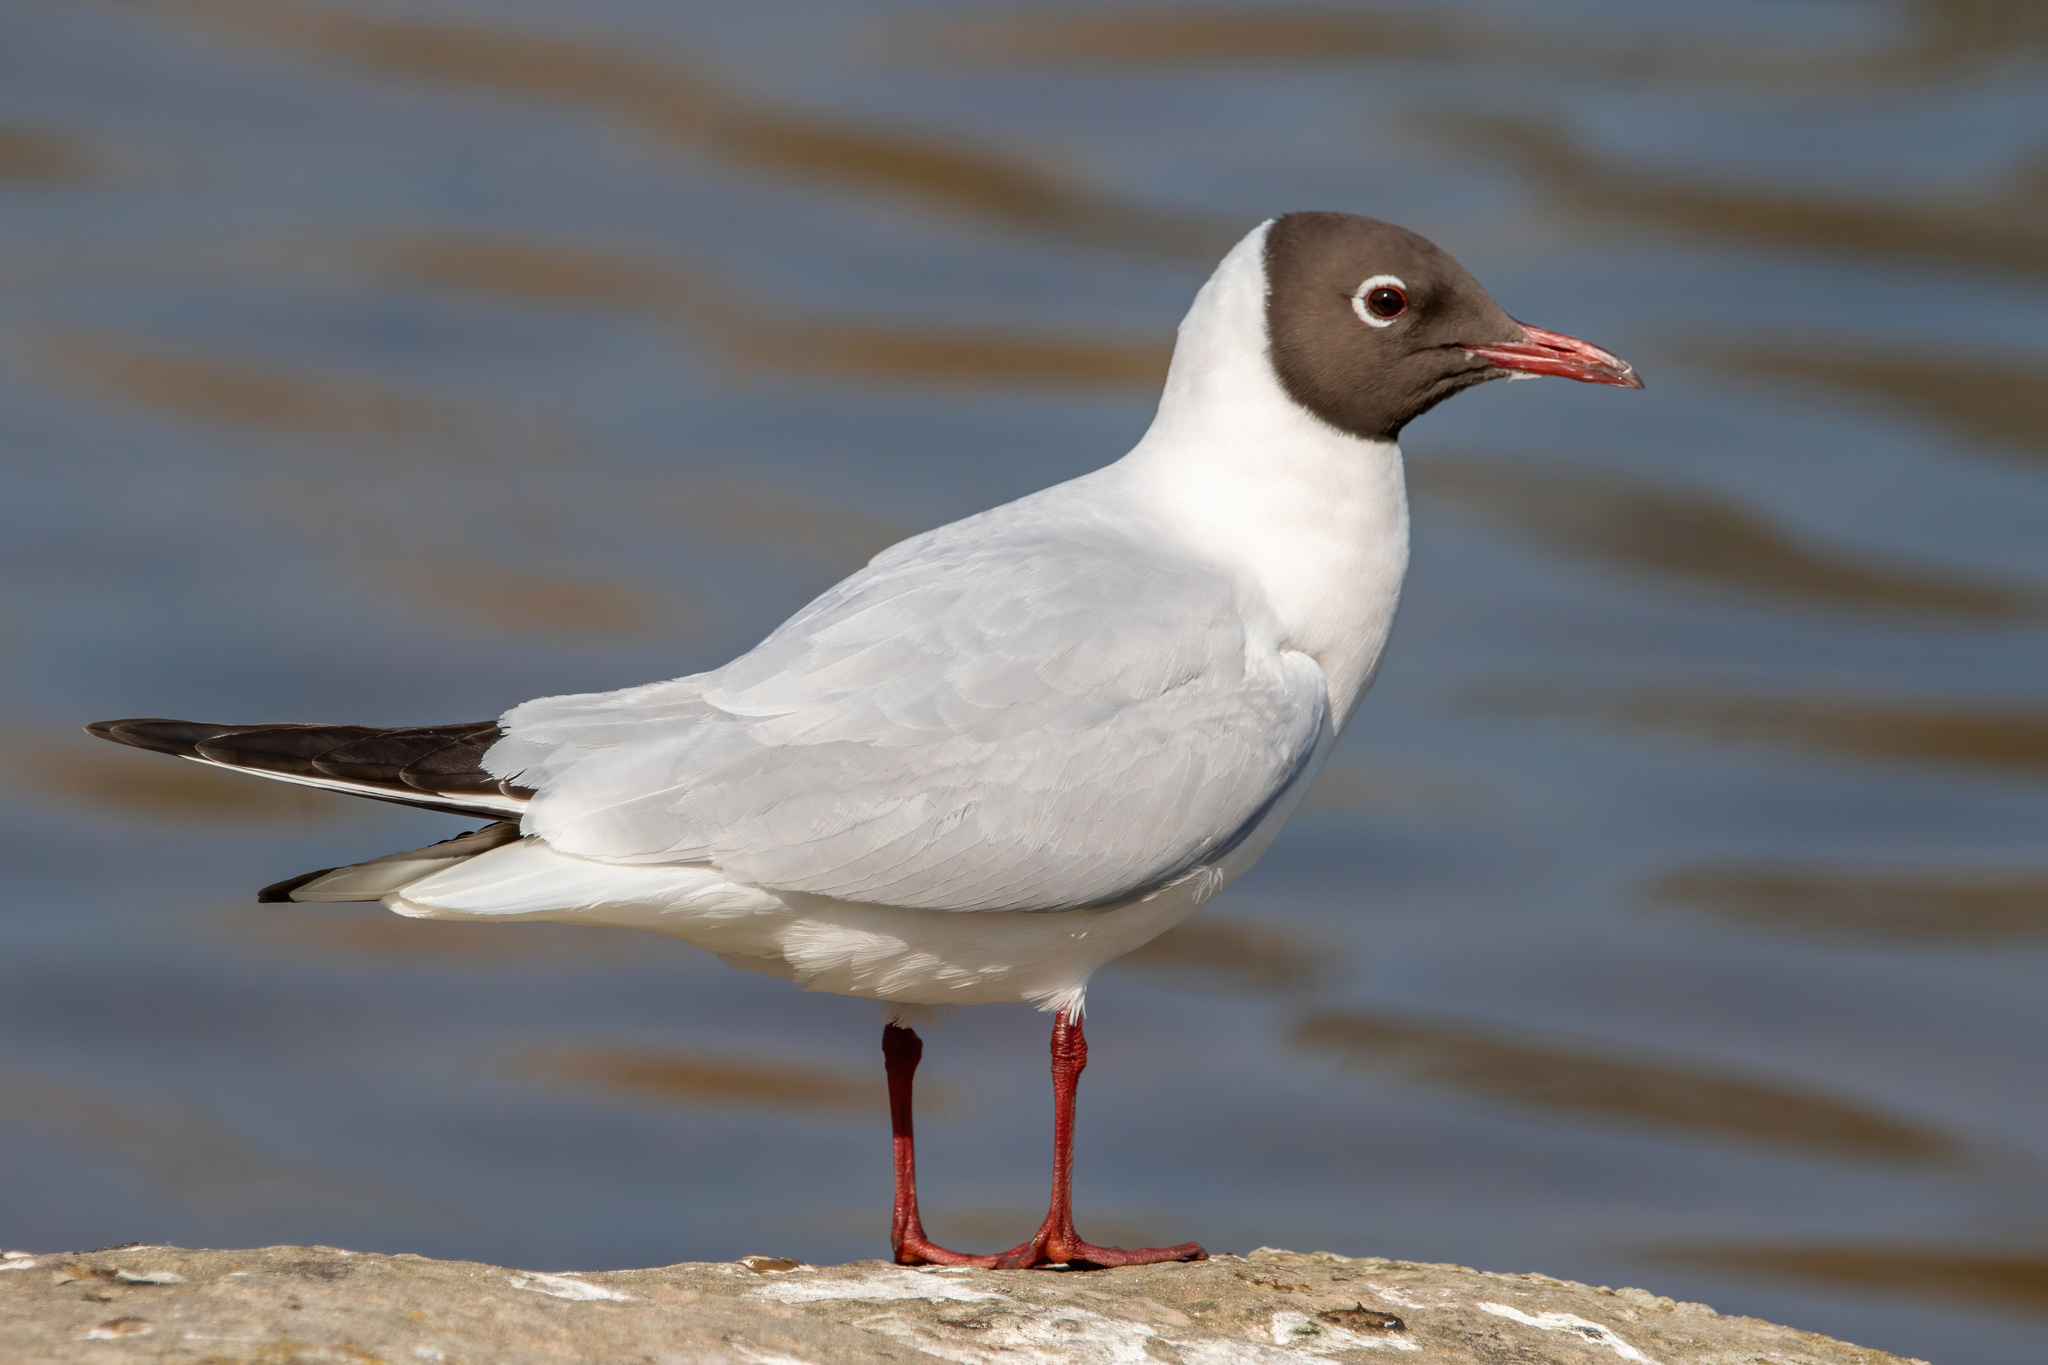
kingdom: Animalia
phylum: Chordata
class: Aves
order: Charadriiformes
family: Laridae
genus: Chroicocephalus
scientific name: Chroicocephalus ridibundus
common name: Black-headed gull
